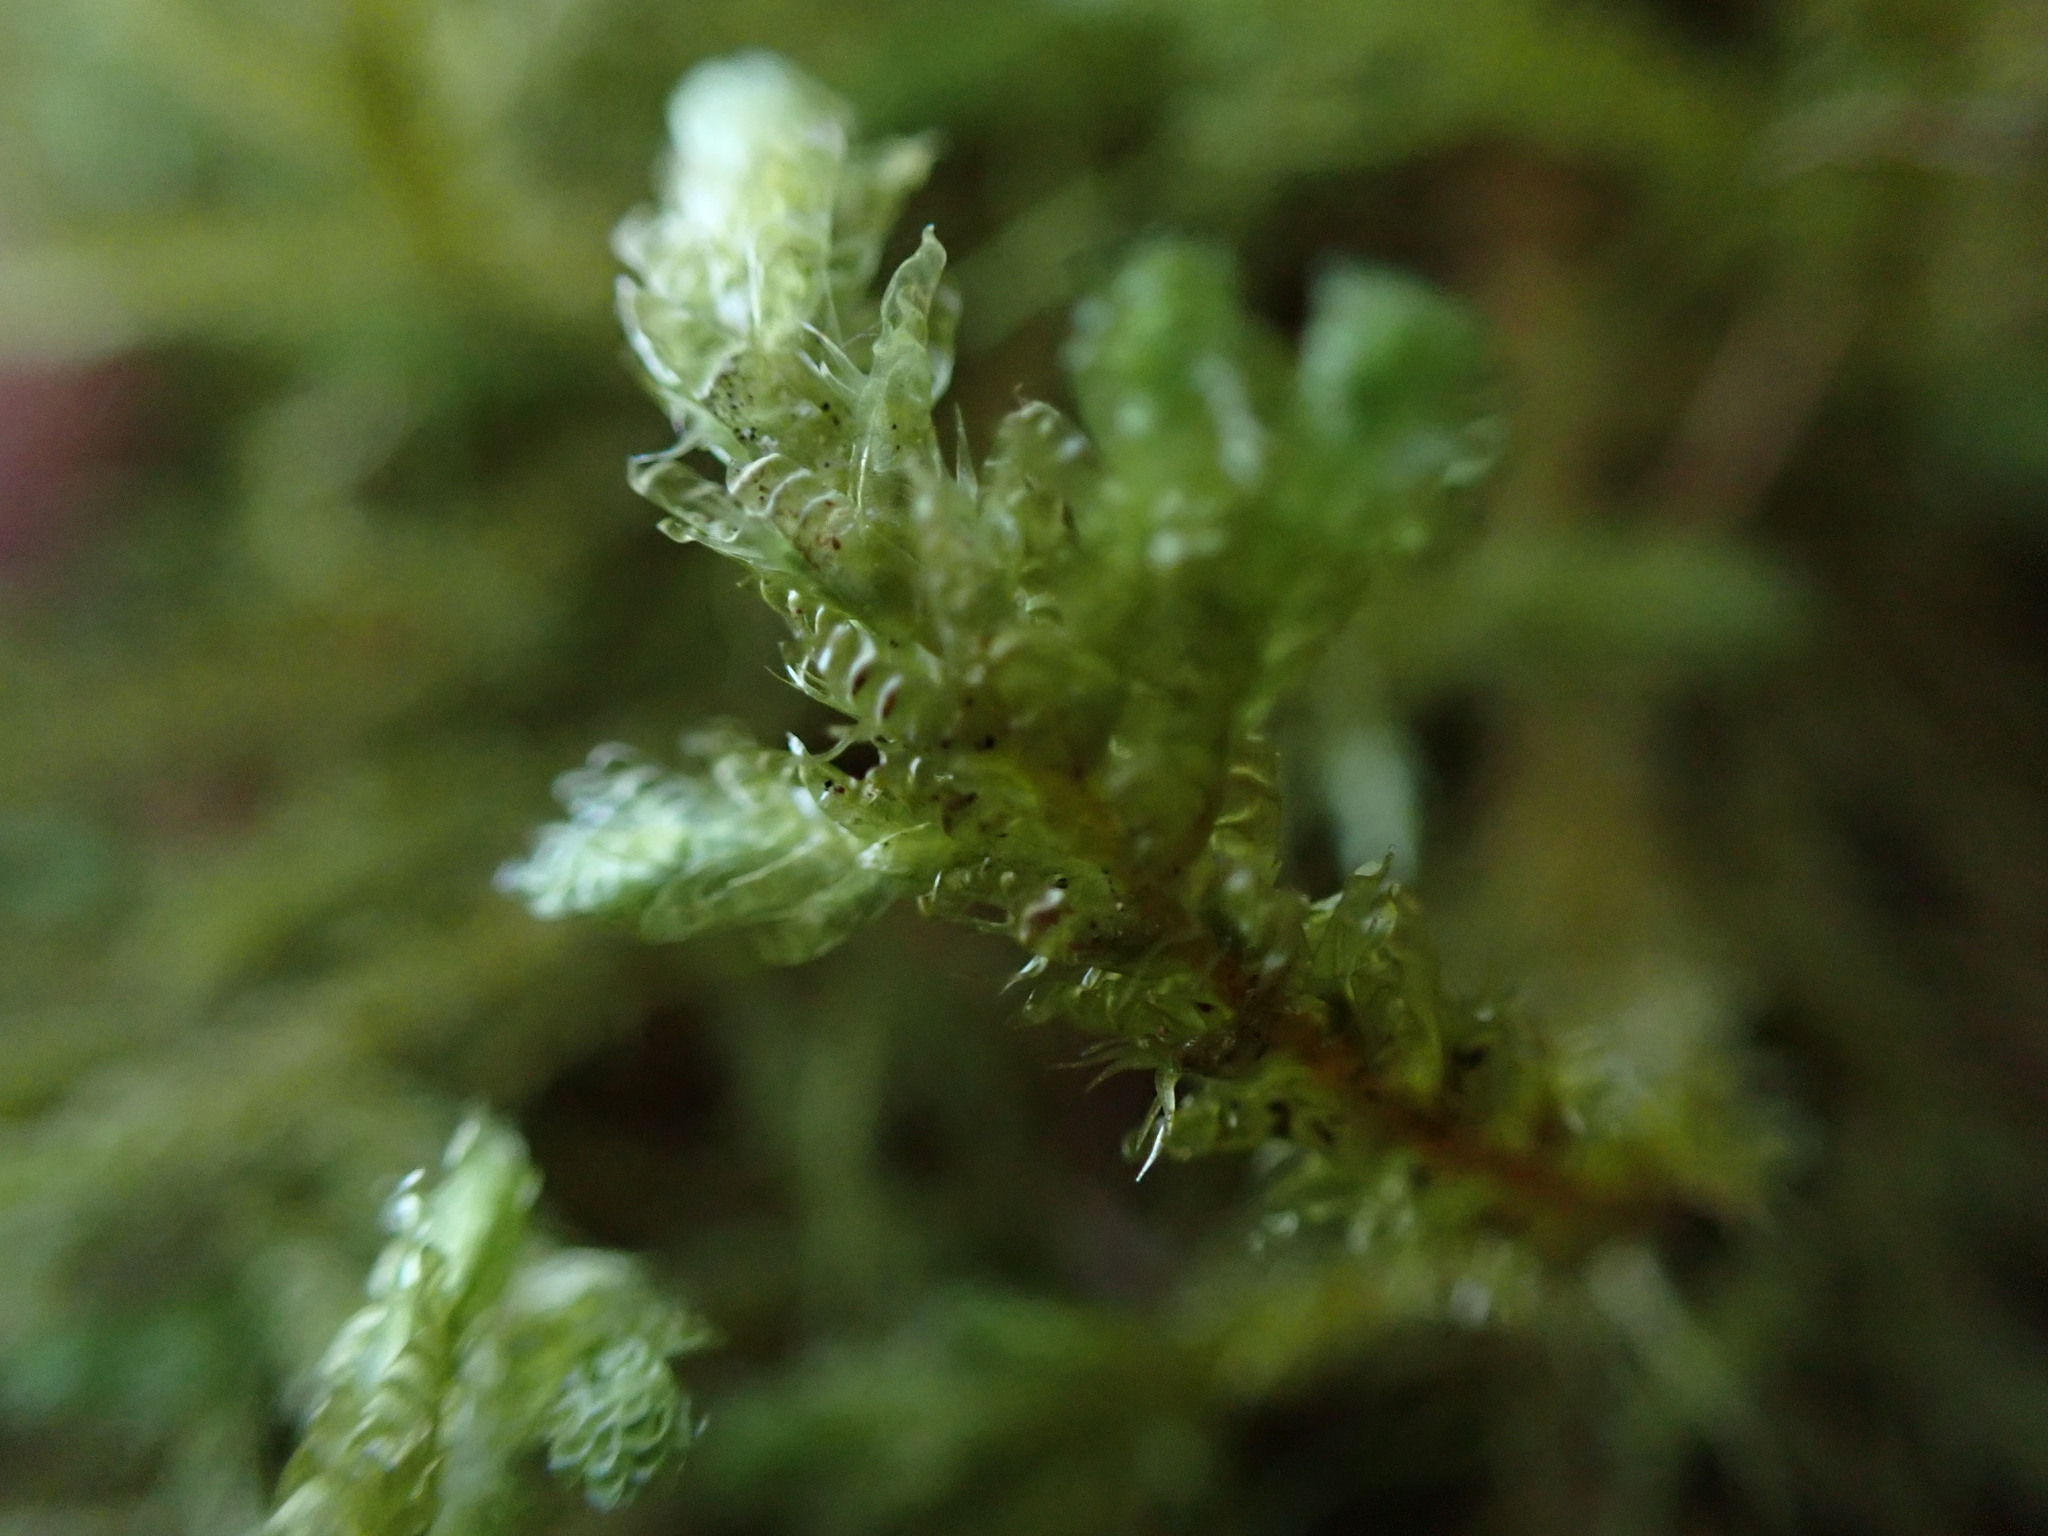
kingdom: Plantae
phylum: Bryophyta
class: Bryopsida
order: Hypnales
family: Neckeraceae
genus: Metaneckera
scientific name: Metaneckera menziesii
